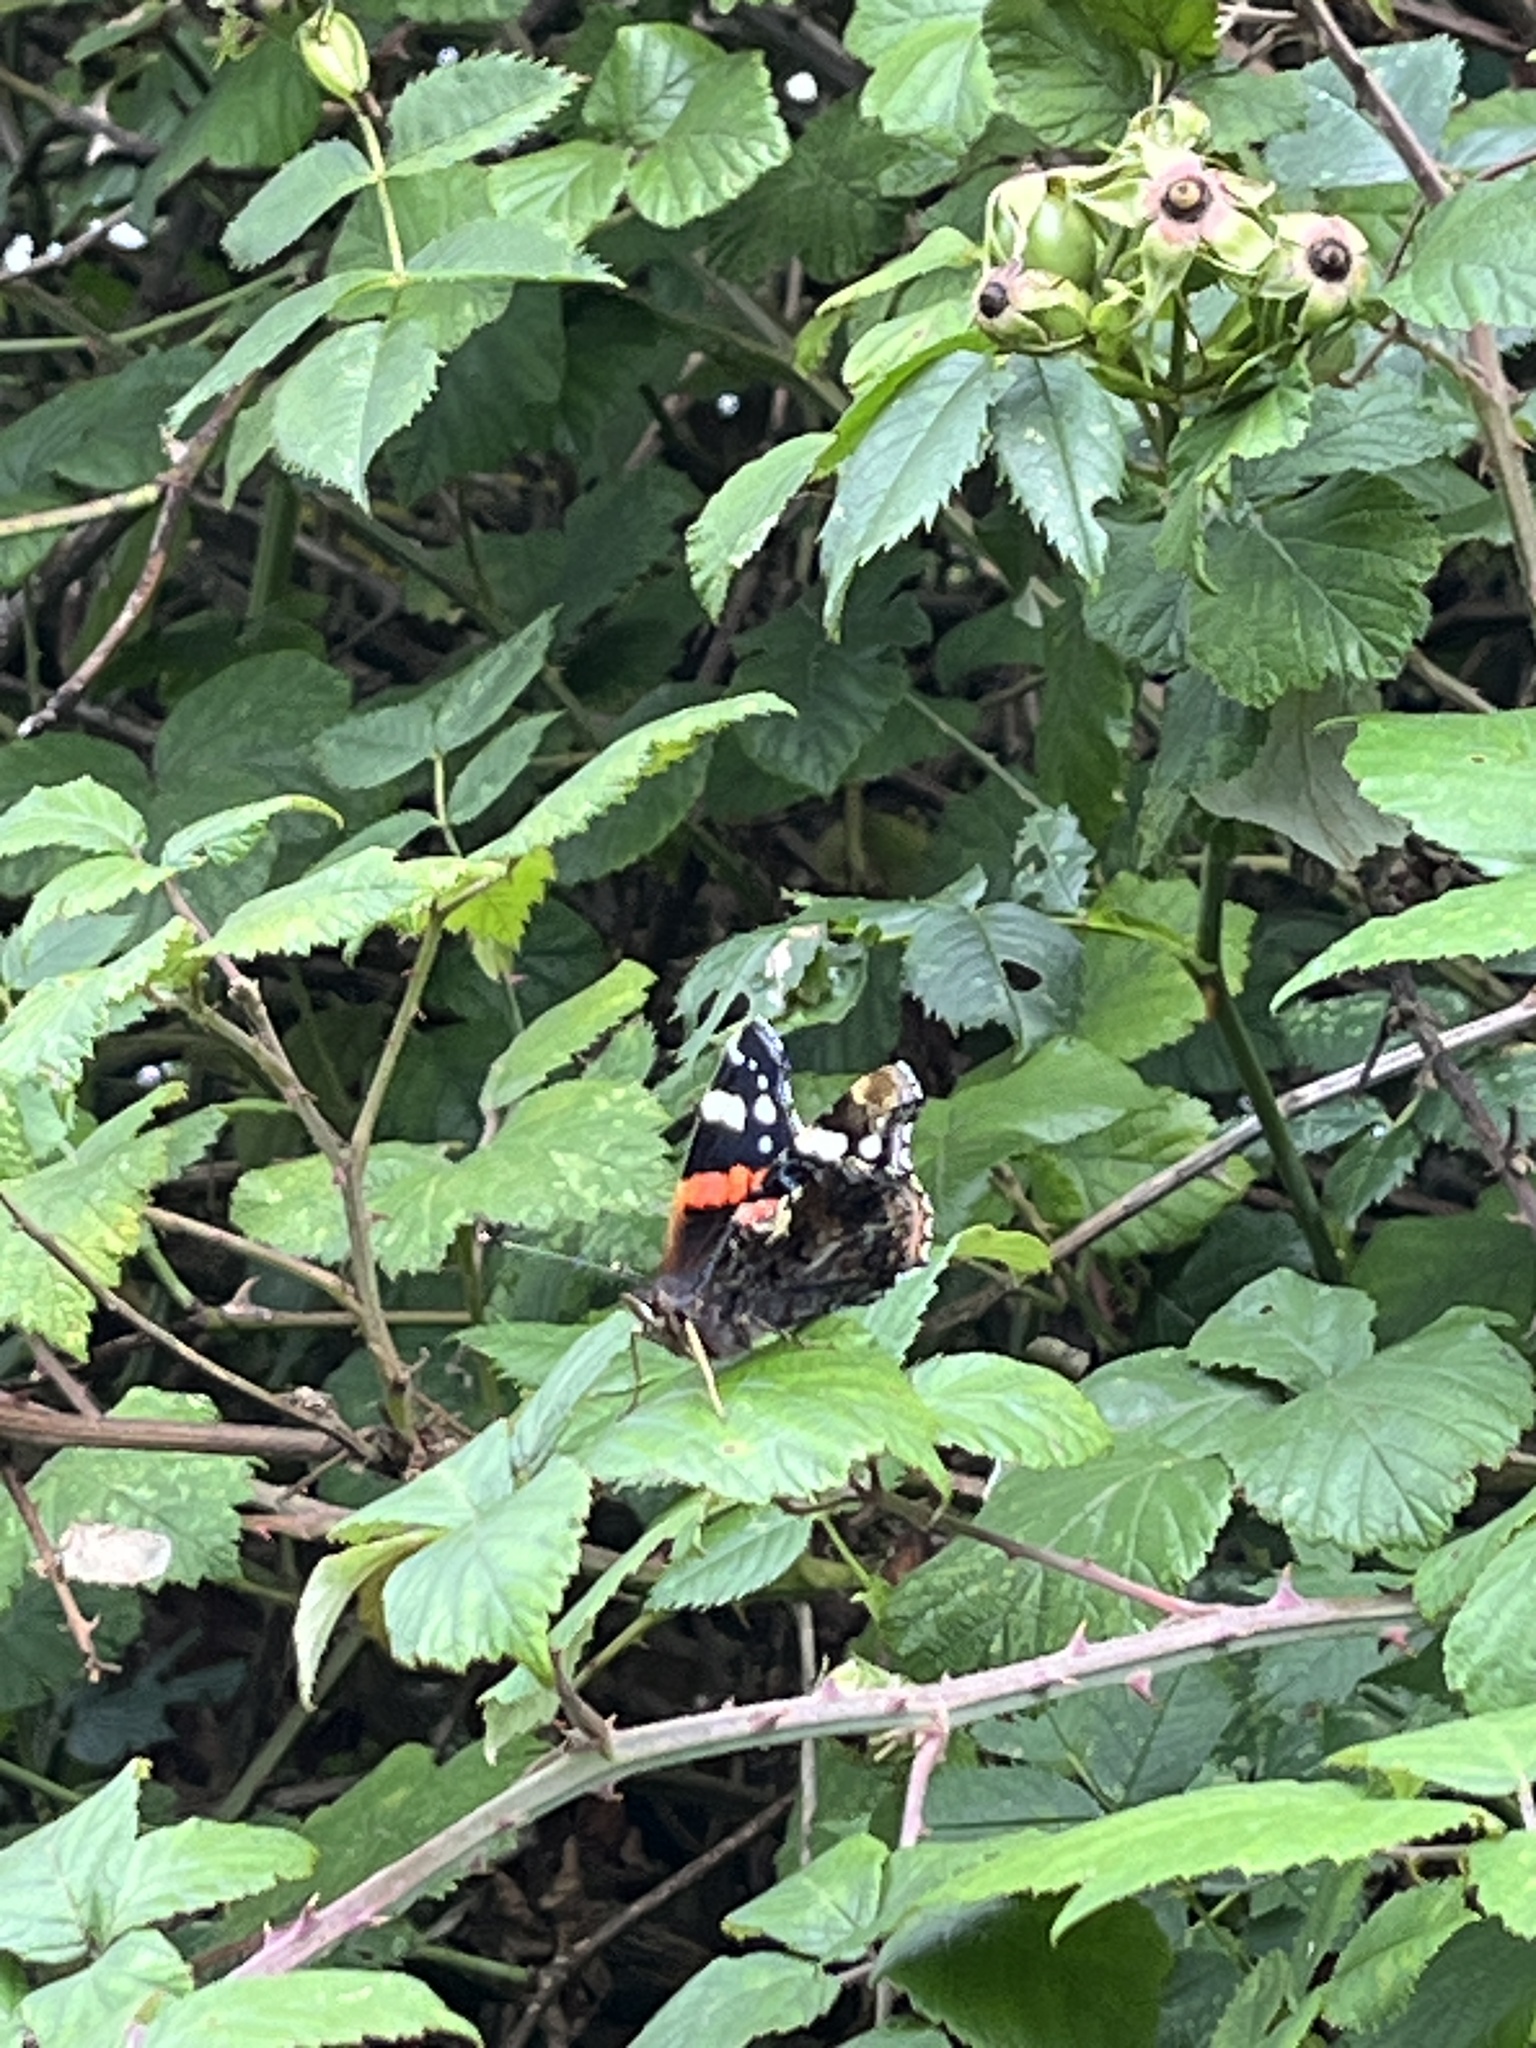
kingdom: Animalia
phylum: Arthropoda
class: Insecta
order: Lepidoptera
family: Nymphalidae
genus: Vanessa
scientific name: Vanessa atalanta
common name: Red admiral
